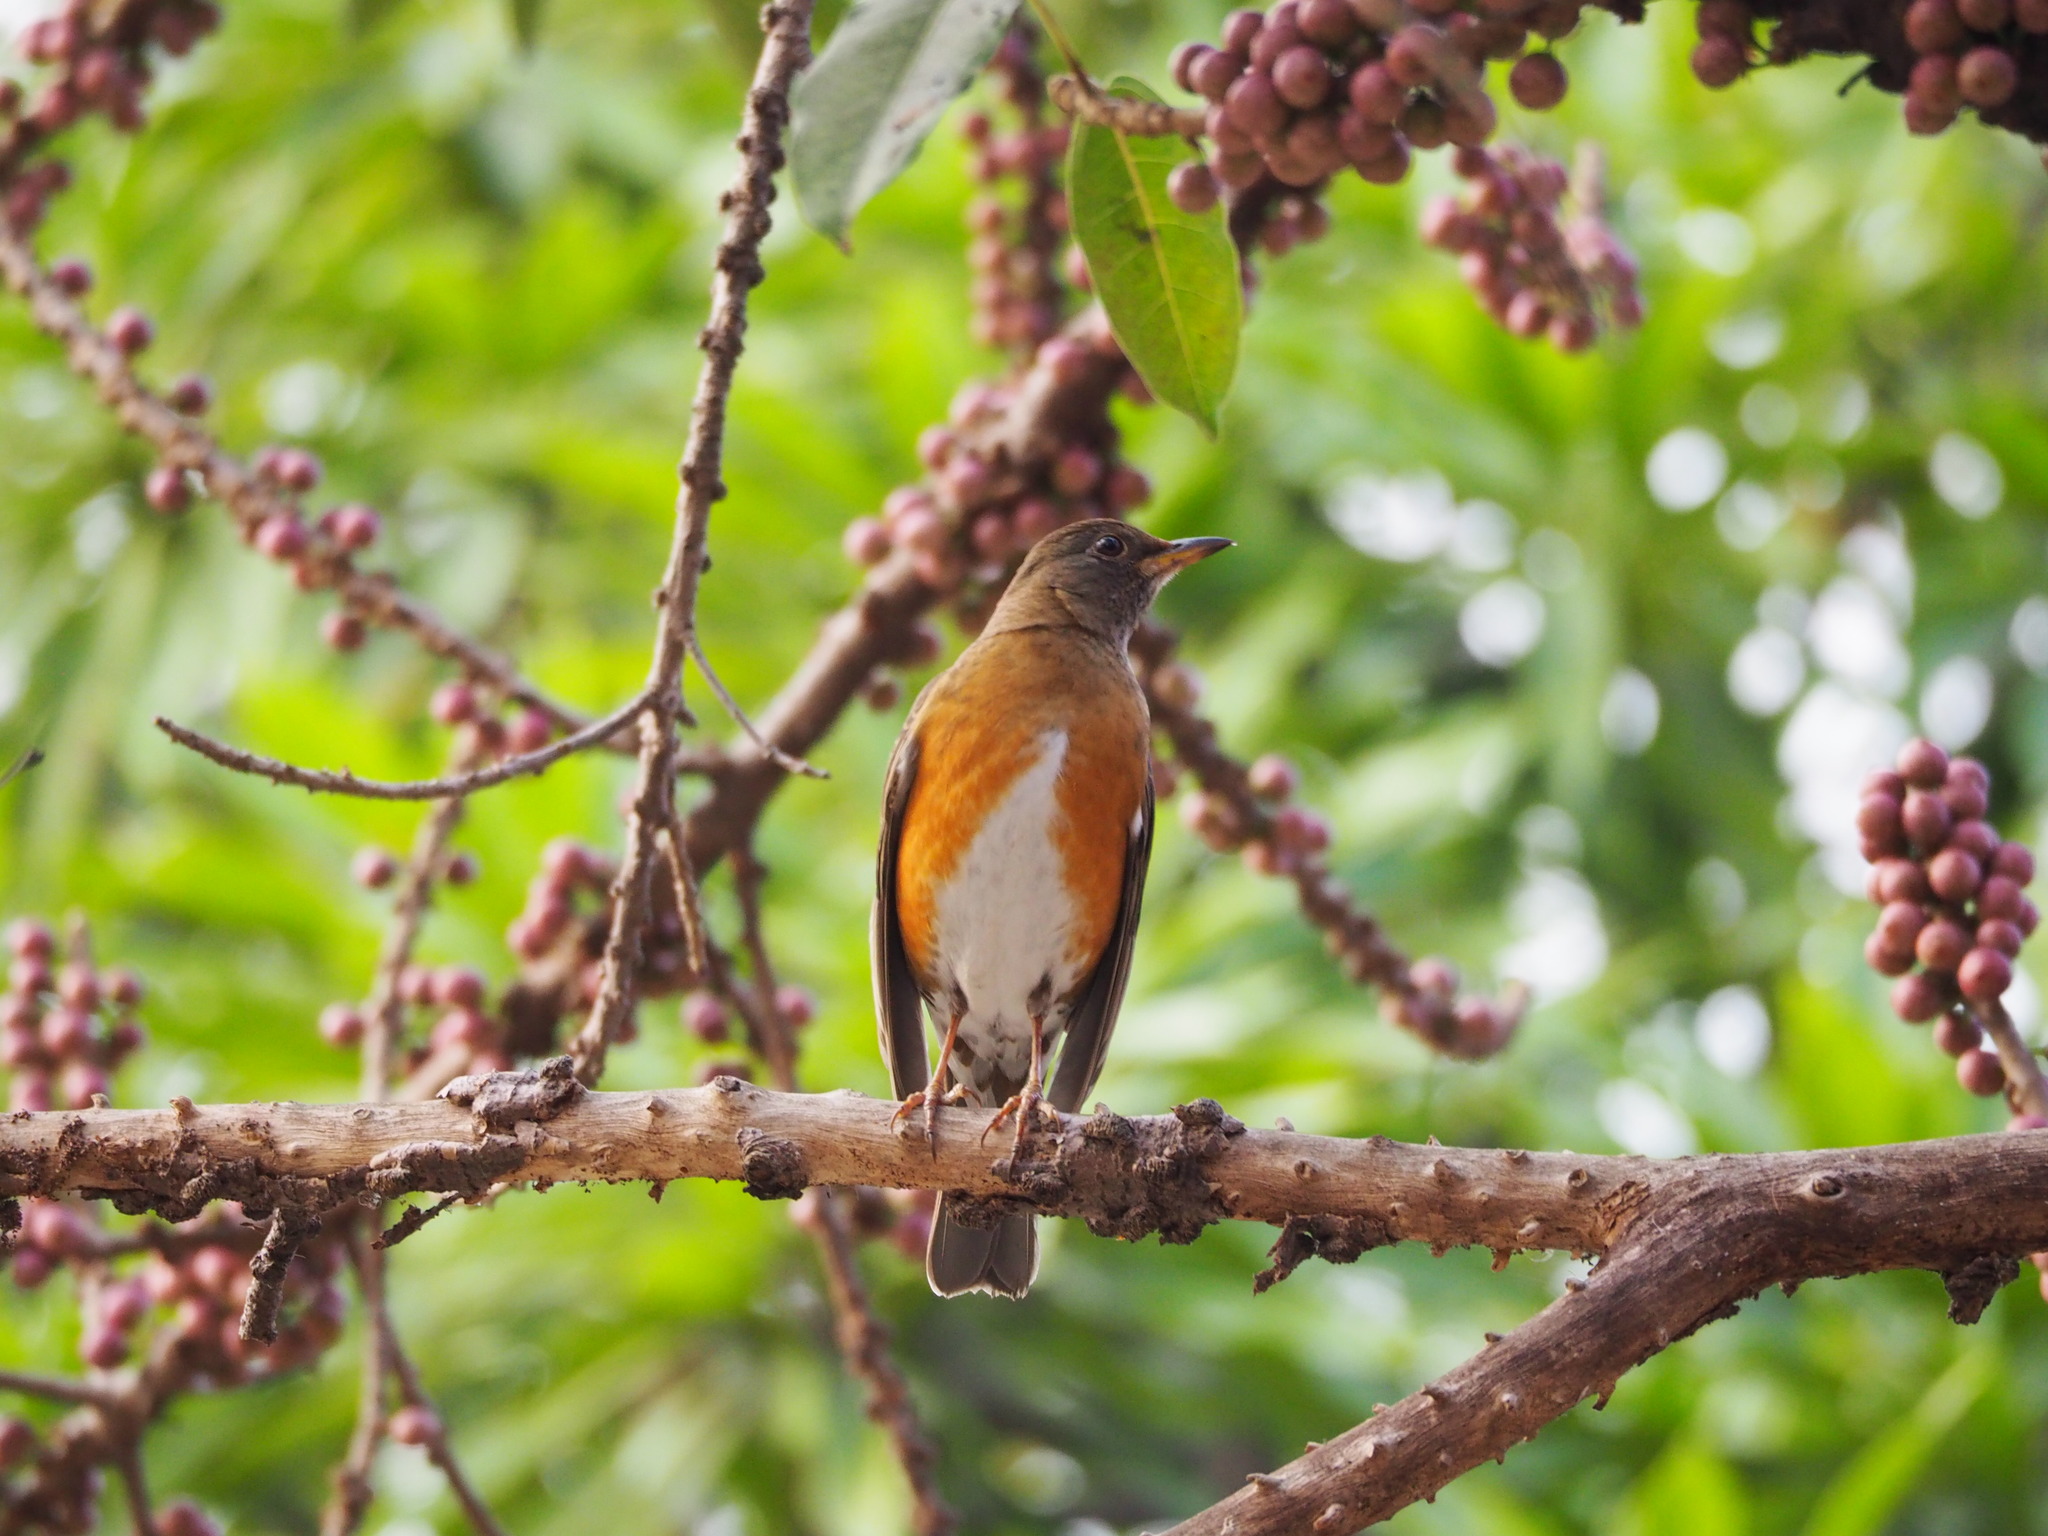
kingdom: Animalia
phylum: Chordata
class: Aves
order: Passeriformes
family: Turdidae
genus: Turdus
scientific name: Turdus chrysolaus
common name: Brown-headed thrush
